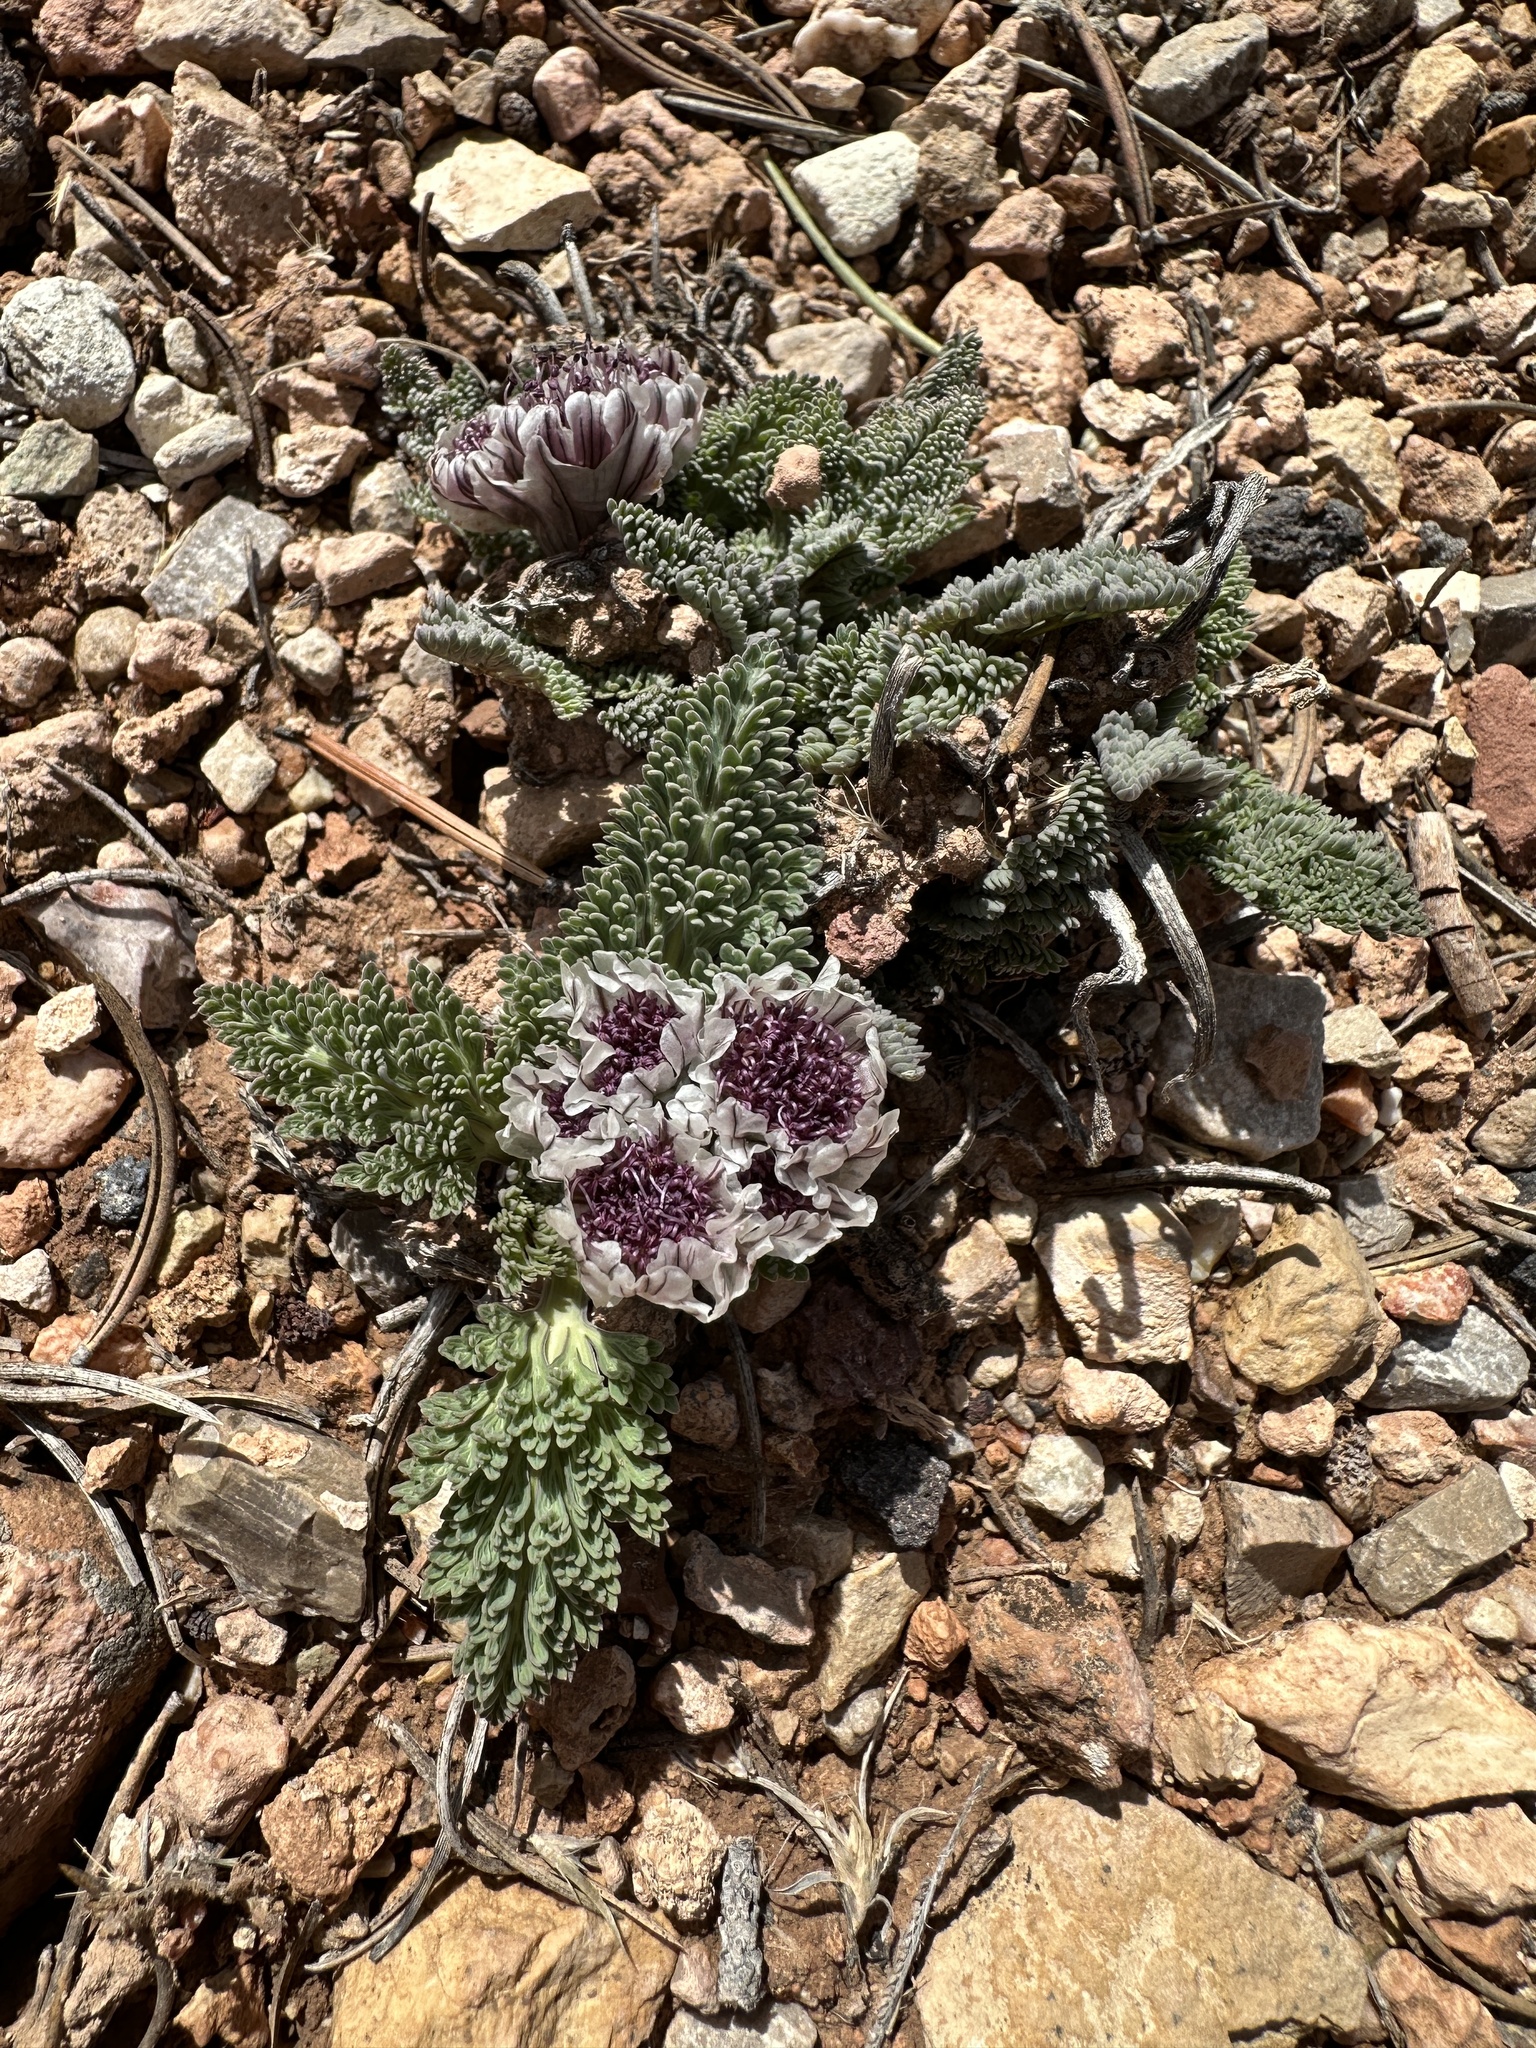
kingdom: Plantae
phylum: Tracheophyta
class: Magnoliopsida
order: Apiales
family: Apiaceae
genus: Vesper
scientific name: Vesper purpurascens
